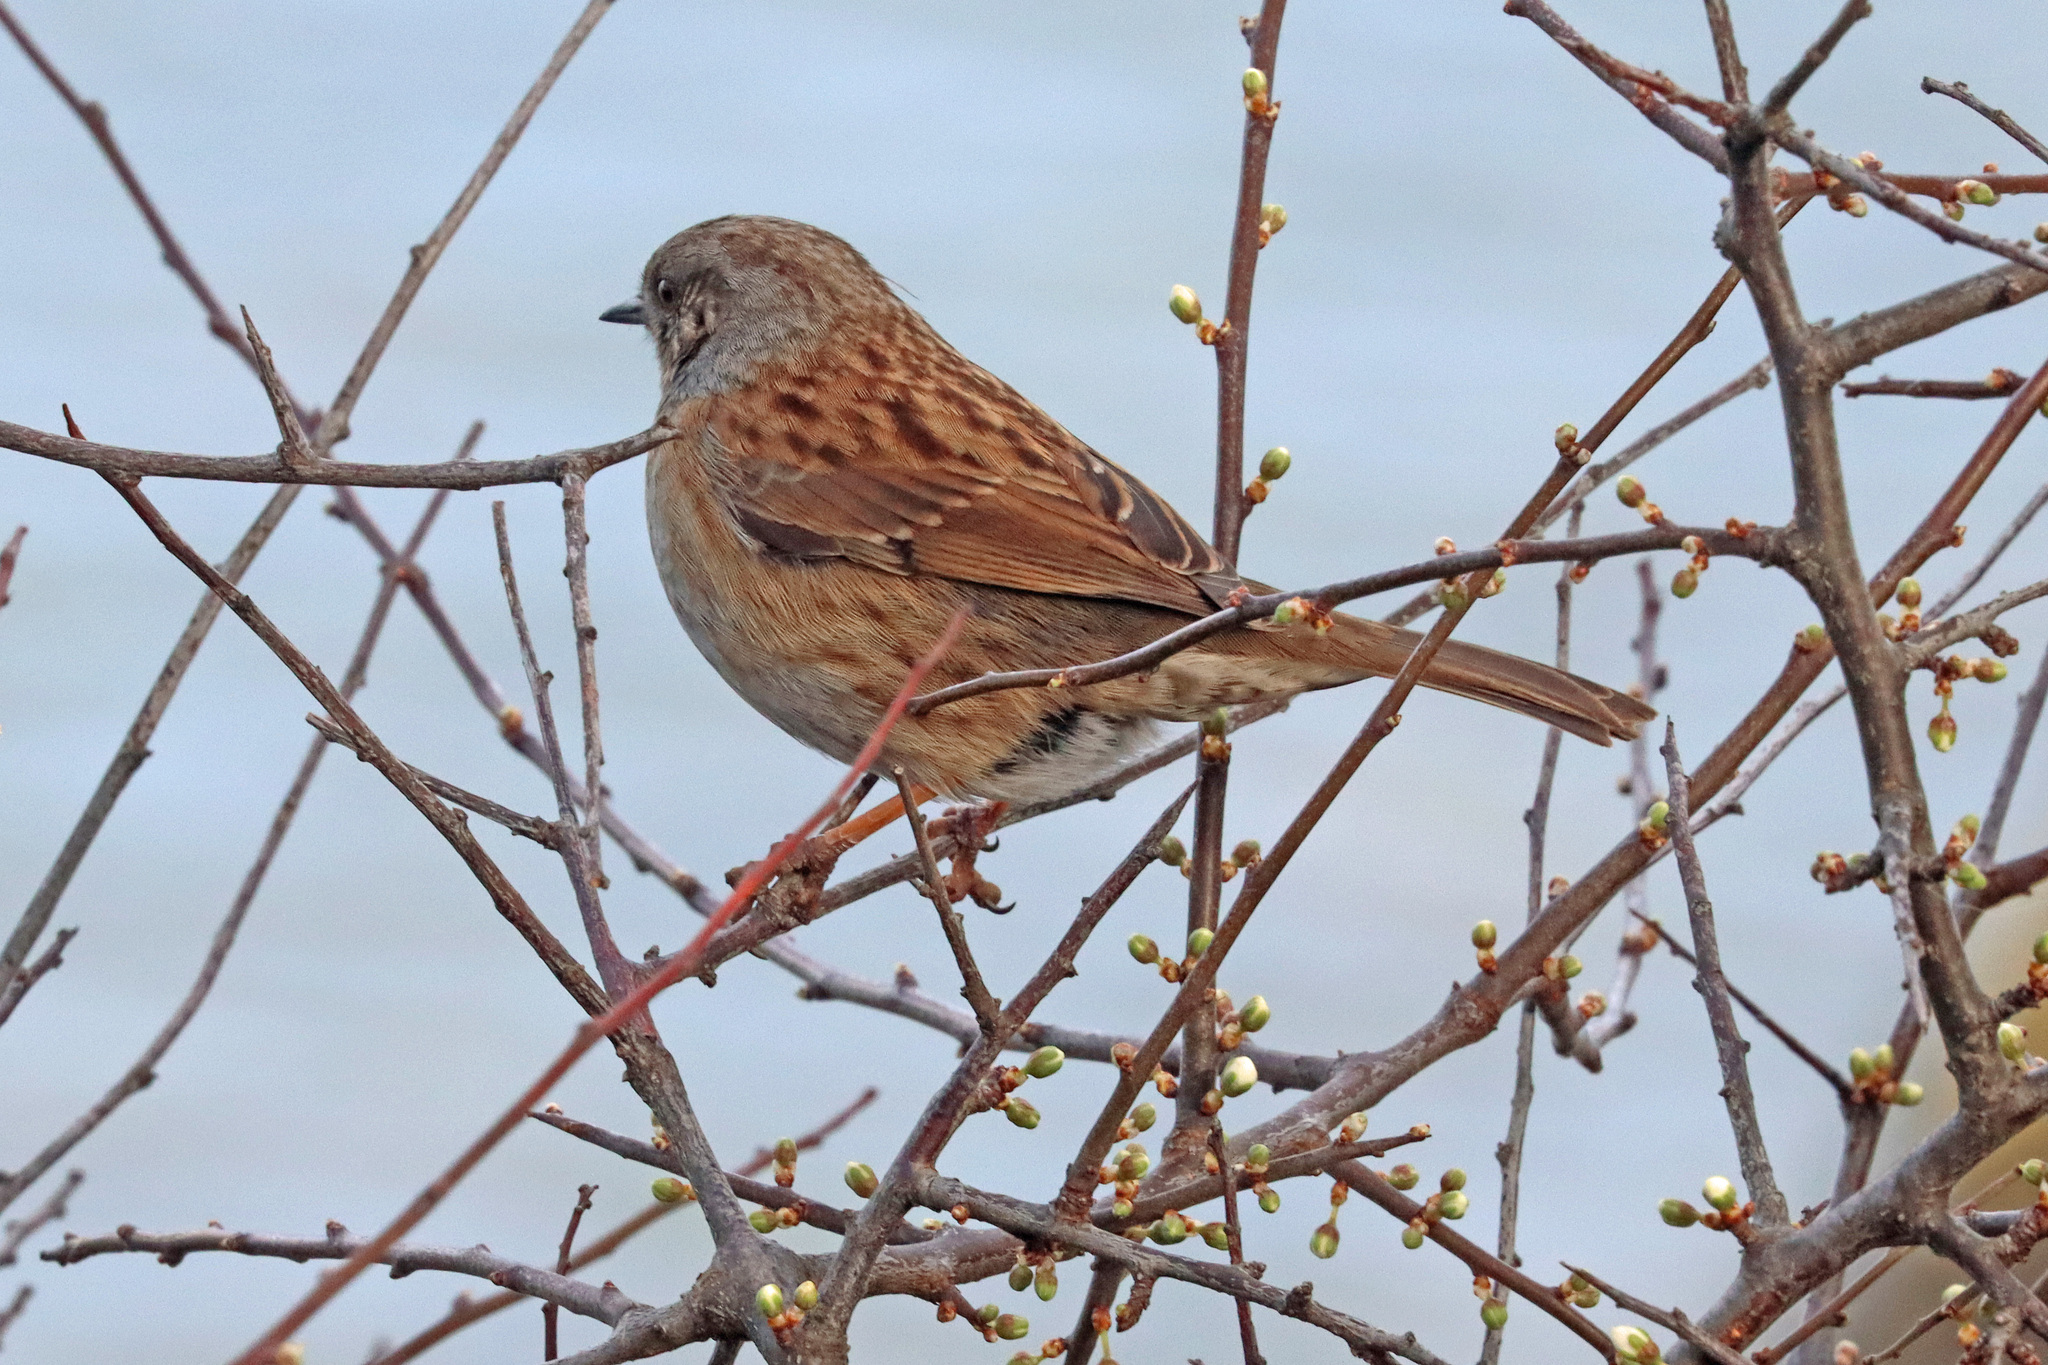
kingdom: Animalia
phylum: Chordata
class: Aves
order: Passeriformes
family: Prunellidae
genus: Prunella
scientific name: Prunella modularis
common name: Dunnock
